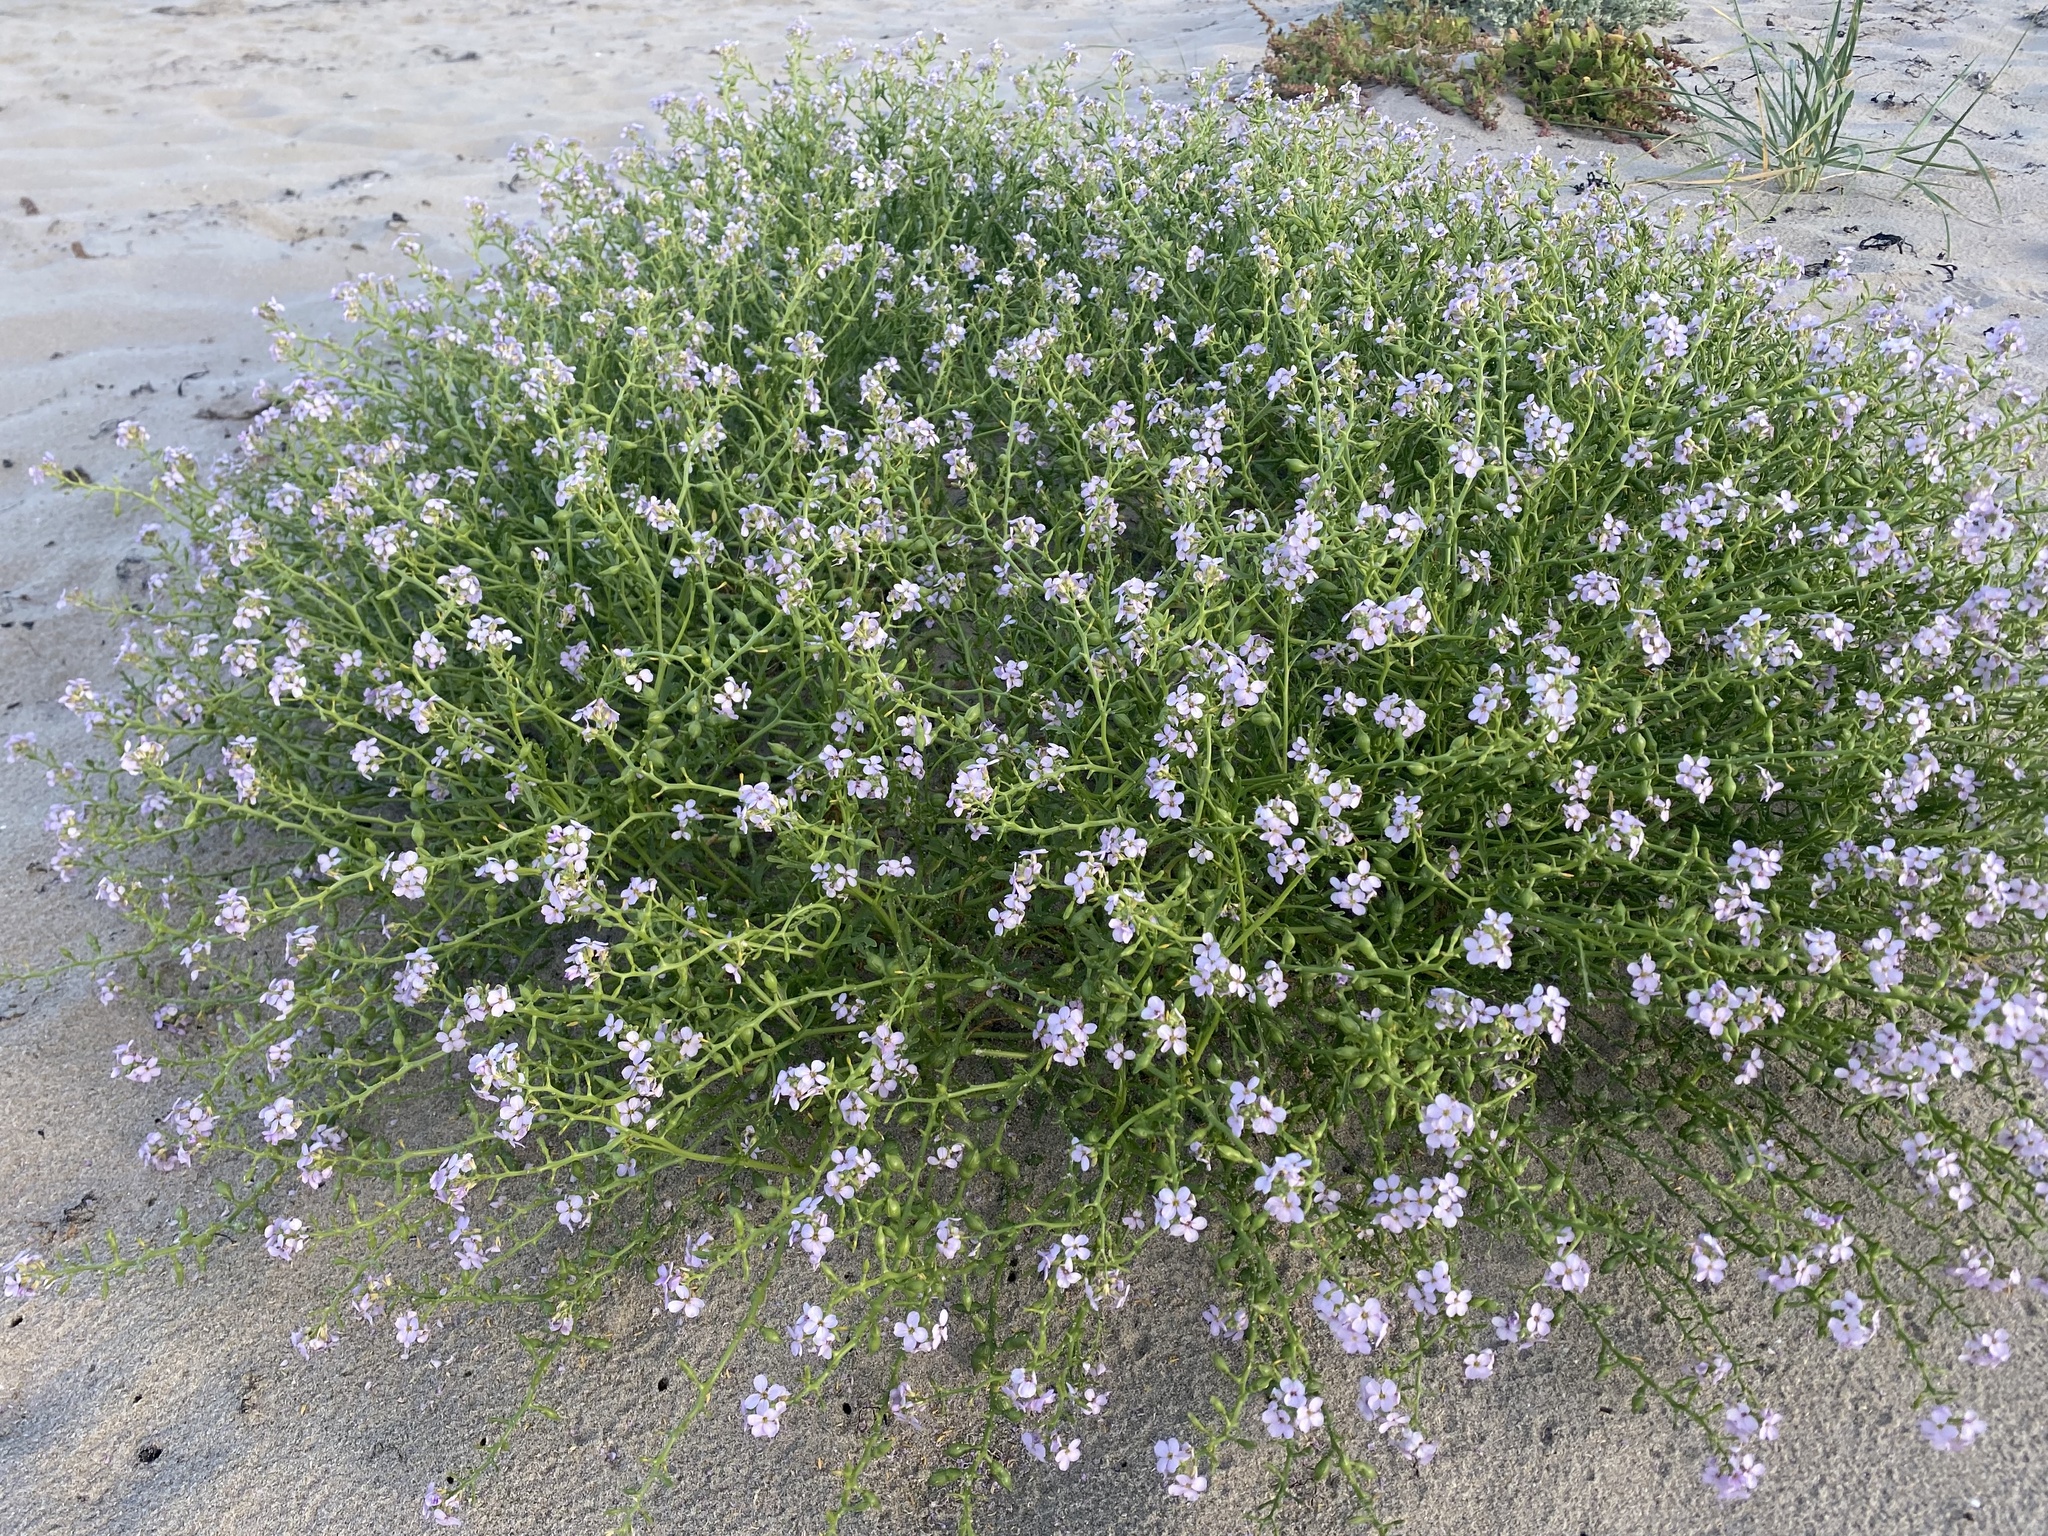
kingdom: Plantae
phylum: Tracheophyta
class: Magnoliopsida
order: Brassicales
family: Brassicaceae
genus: Cakile
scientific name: Cakile maritima
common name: Sea rocket
